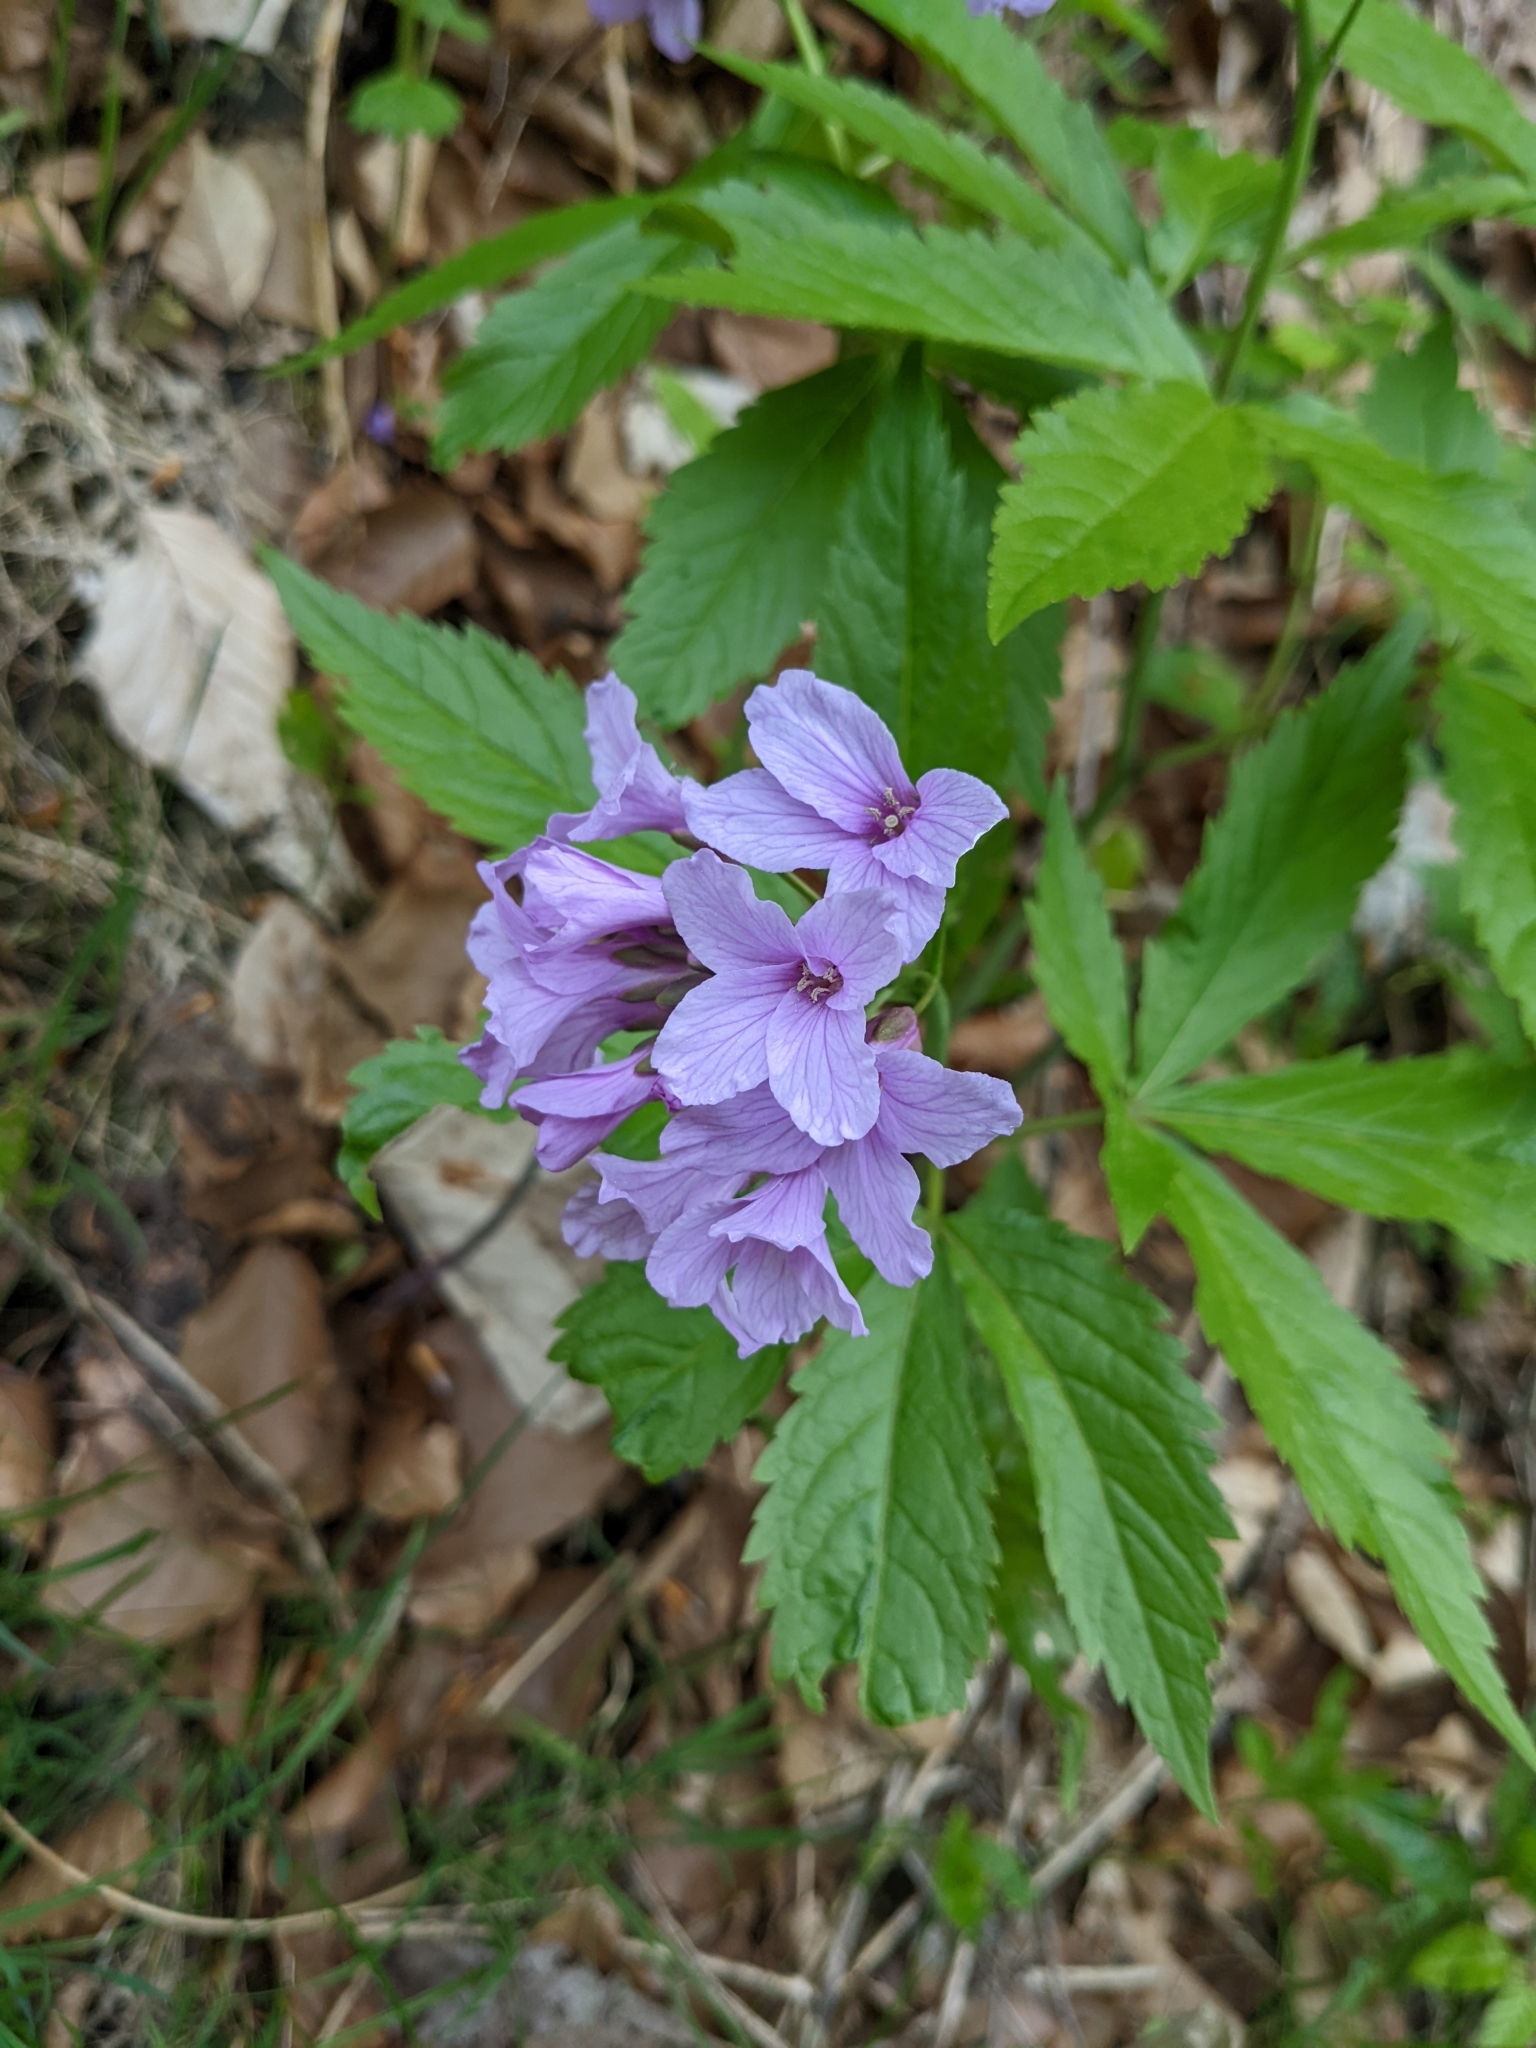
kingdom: Plantae
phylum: Tracheophyta
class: Magnoliopsida
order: Brassicales
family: Brassicaceae
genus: Cardamine
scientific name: Cardamine pentaphyllos
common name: Five-leaflet bitter-cress
